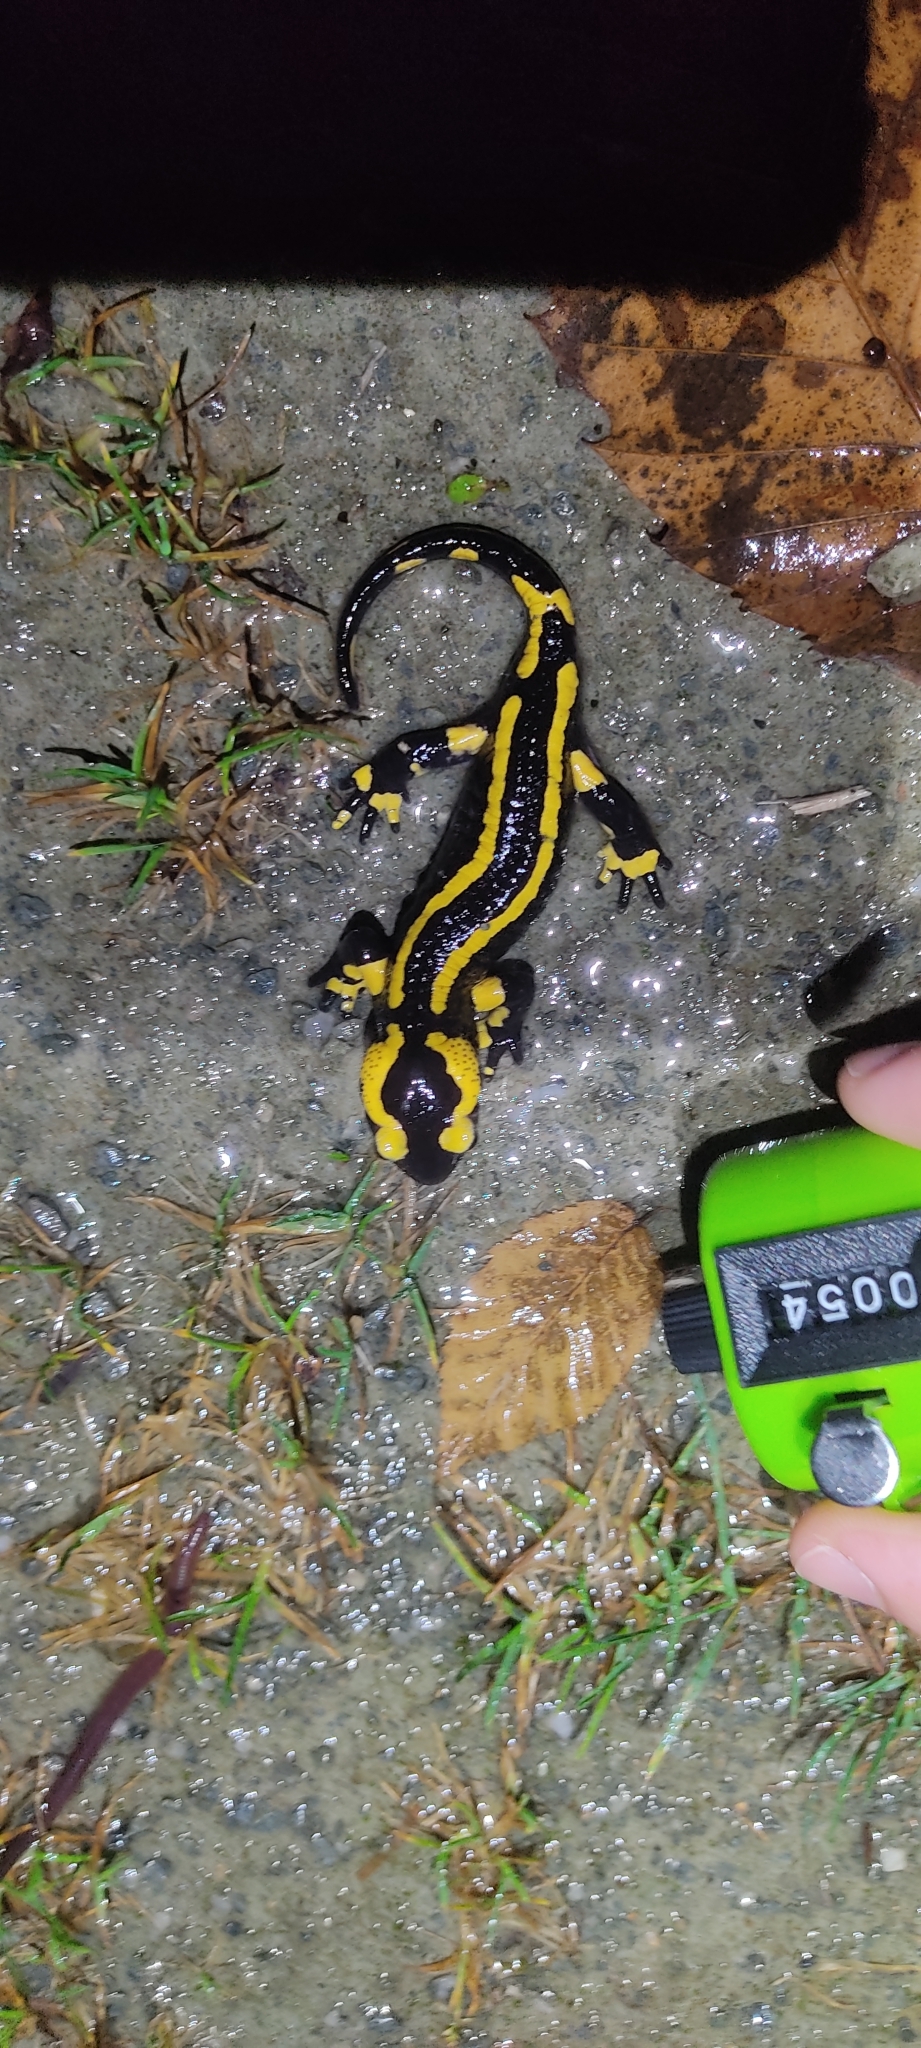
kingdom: Animalia
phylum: Chordata
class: Amphibia
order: Caudata
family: Salamandridae
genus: Salamandra
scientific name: Salamandra salamandra
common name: Fire salamander
